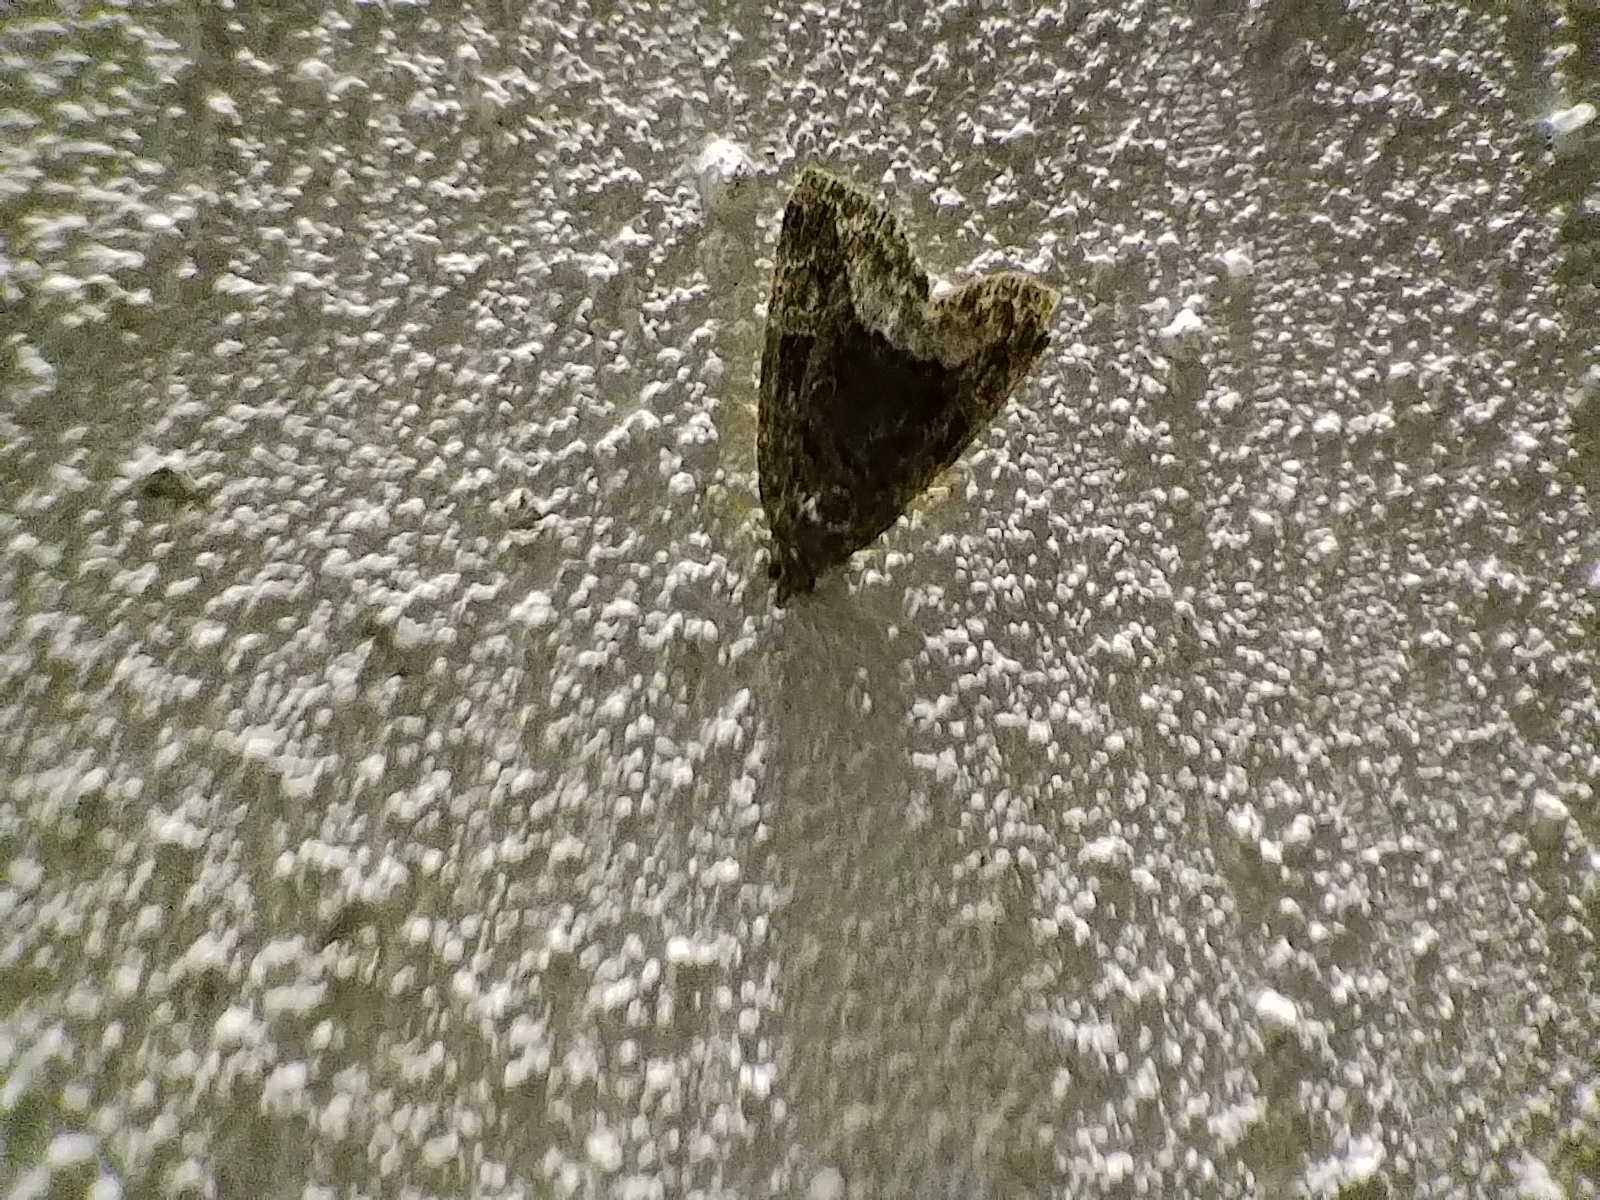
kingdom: Animalia
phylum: Arthropoda
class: Insecta
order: Lepidoptera
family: Noctuidae
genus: Deltote
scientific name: Deltote pygarga
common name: Marbled white spot
